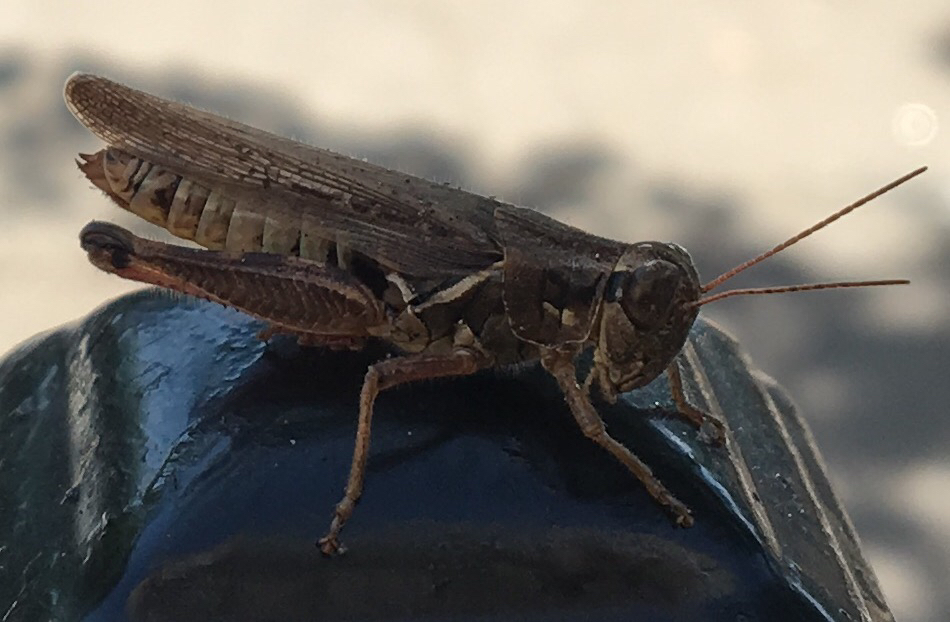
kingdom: Animalia
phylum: Arthropoda
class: Insecta
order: Orthoptera
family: Acrididae
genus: Melanoplus
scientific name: Melanoplus
